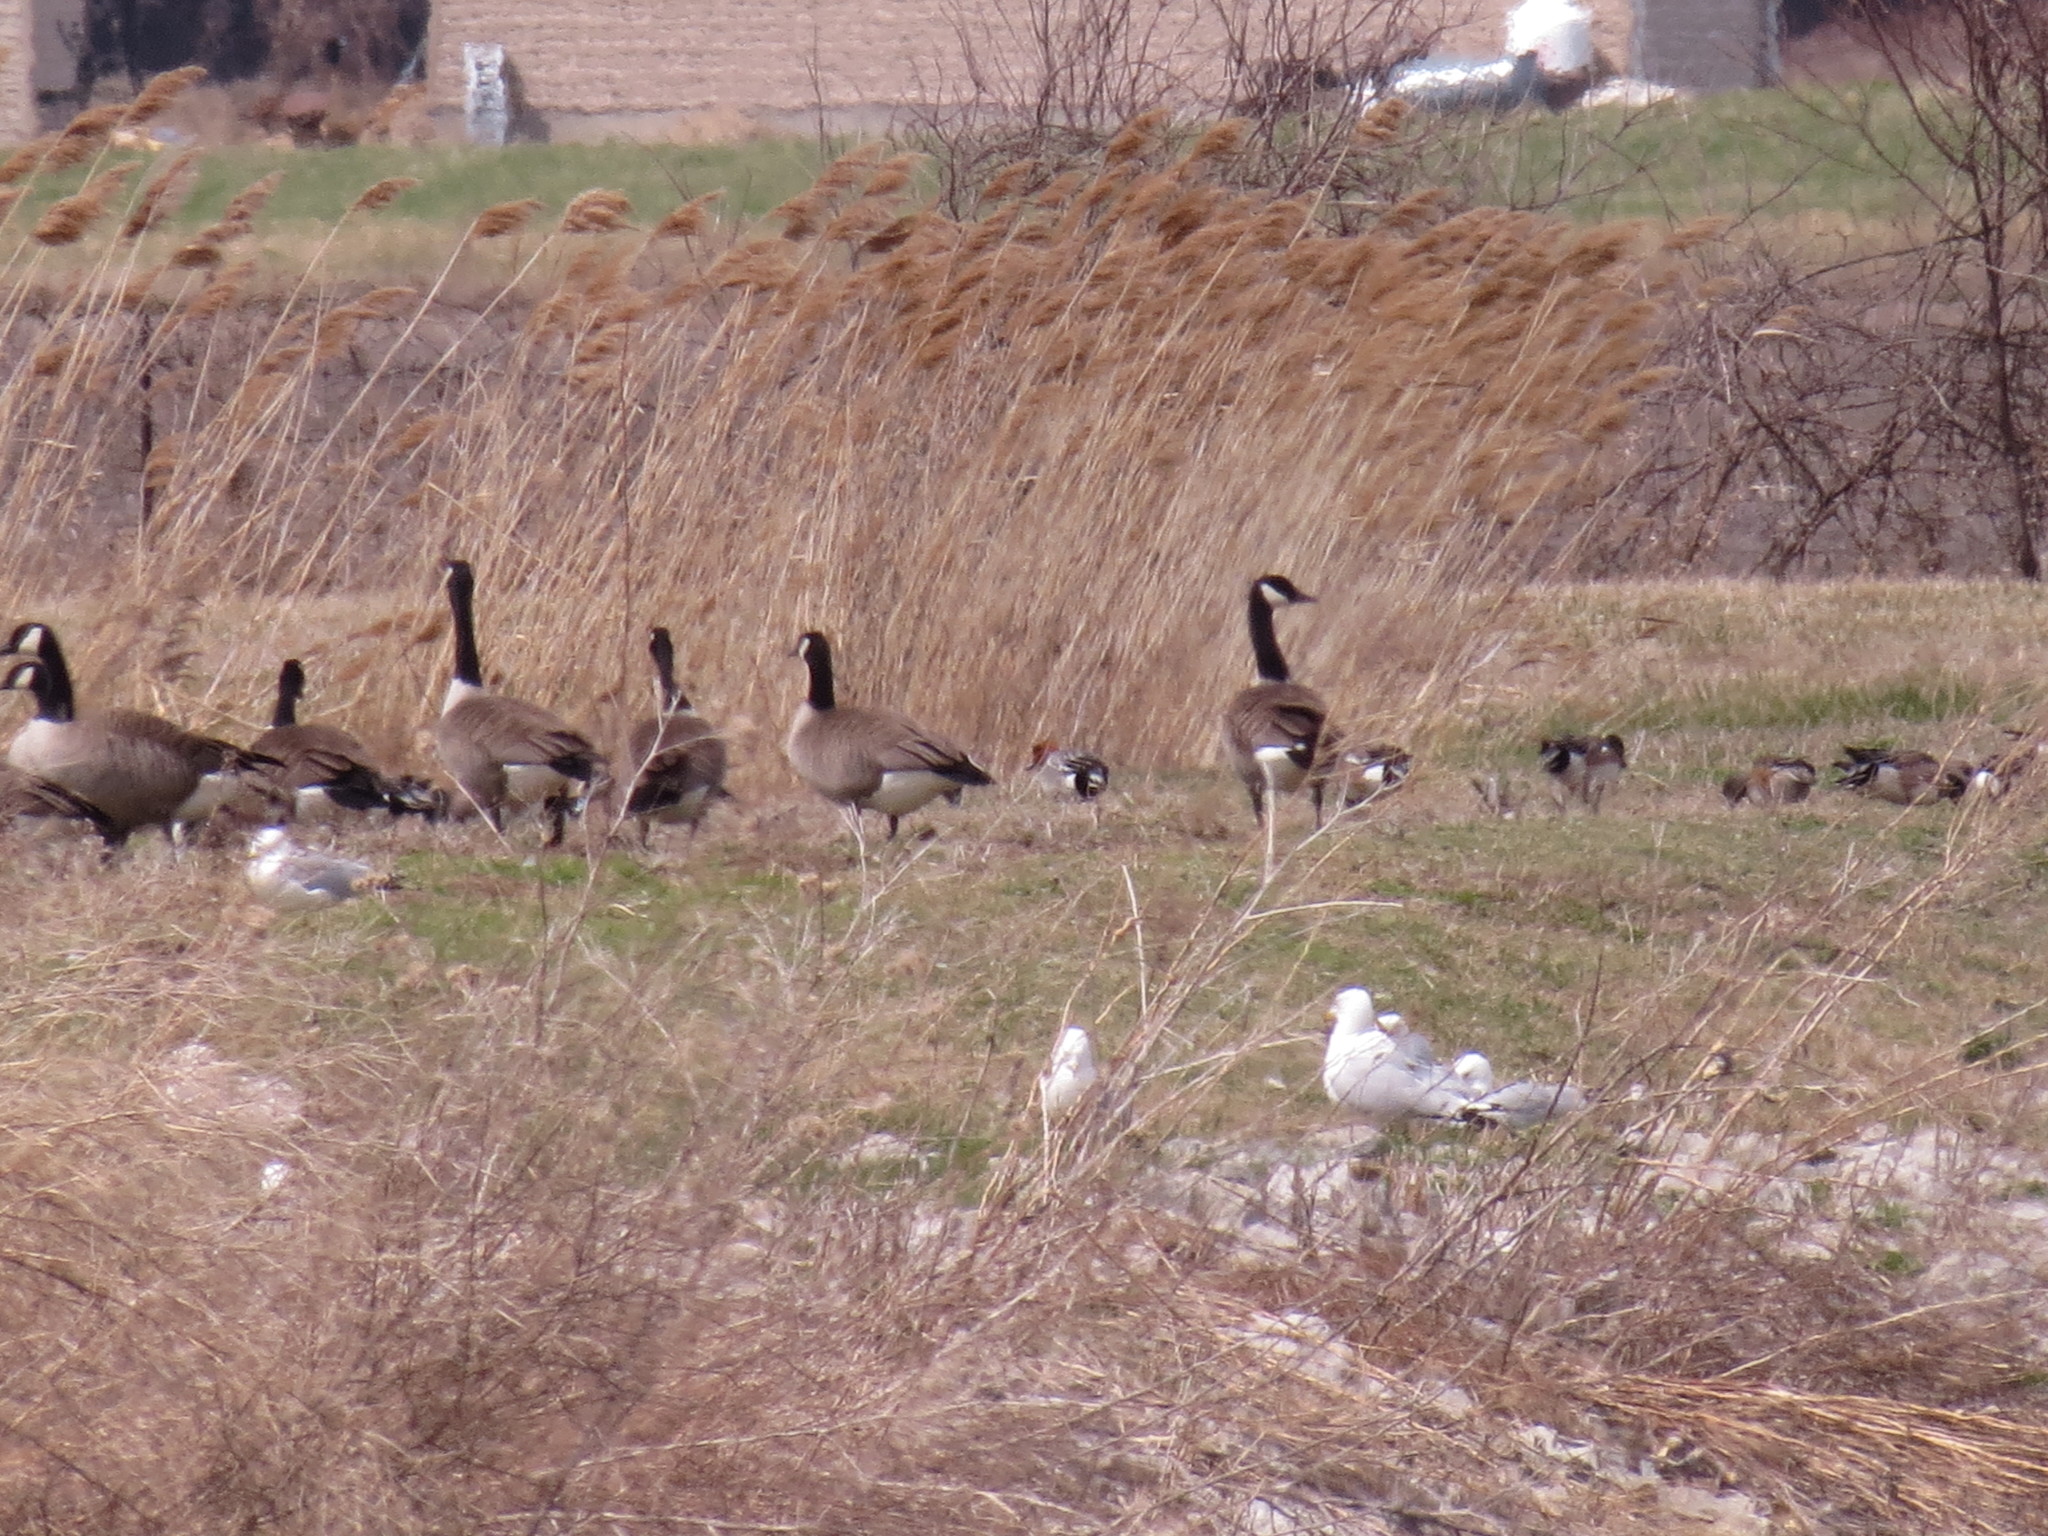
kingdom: Animalia
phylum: Chordata
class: Aves
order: Anseriformes
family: Anatidae
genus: Mareca
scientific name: Mareca penelope
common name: Eurasian wigeon
